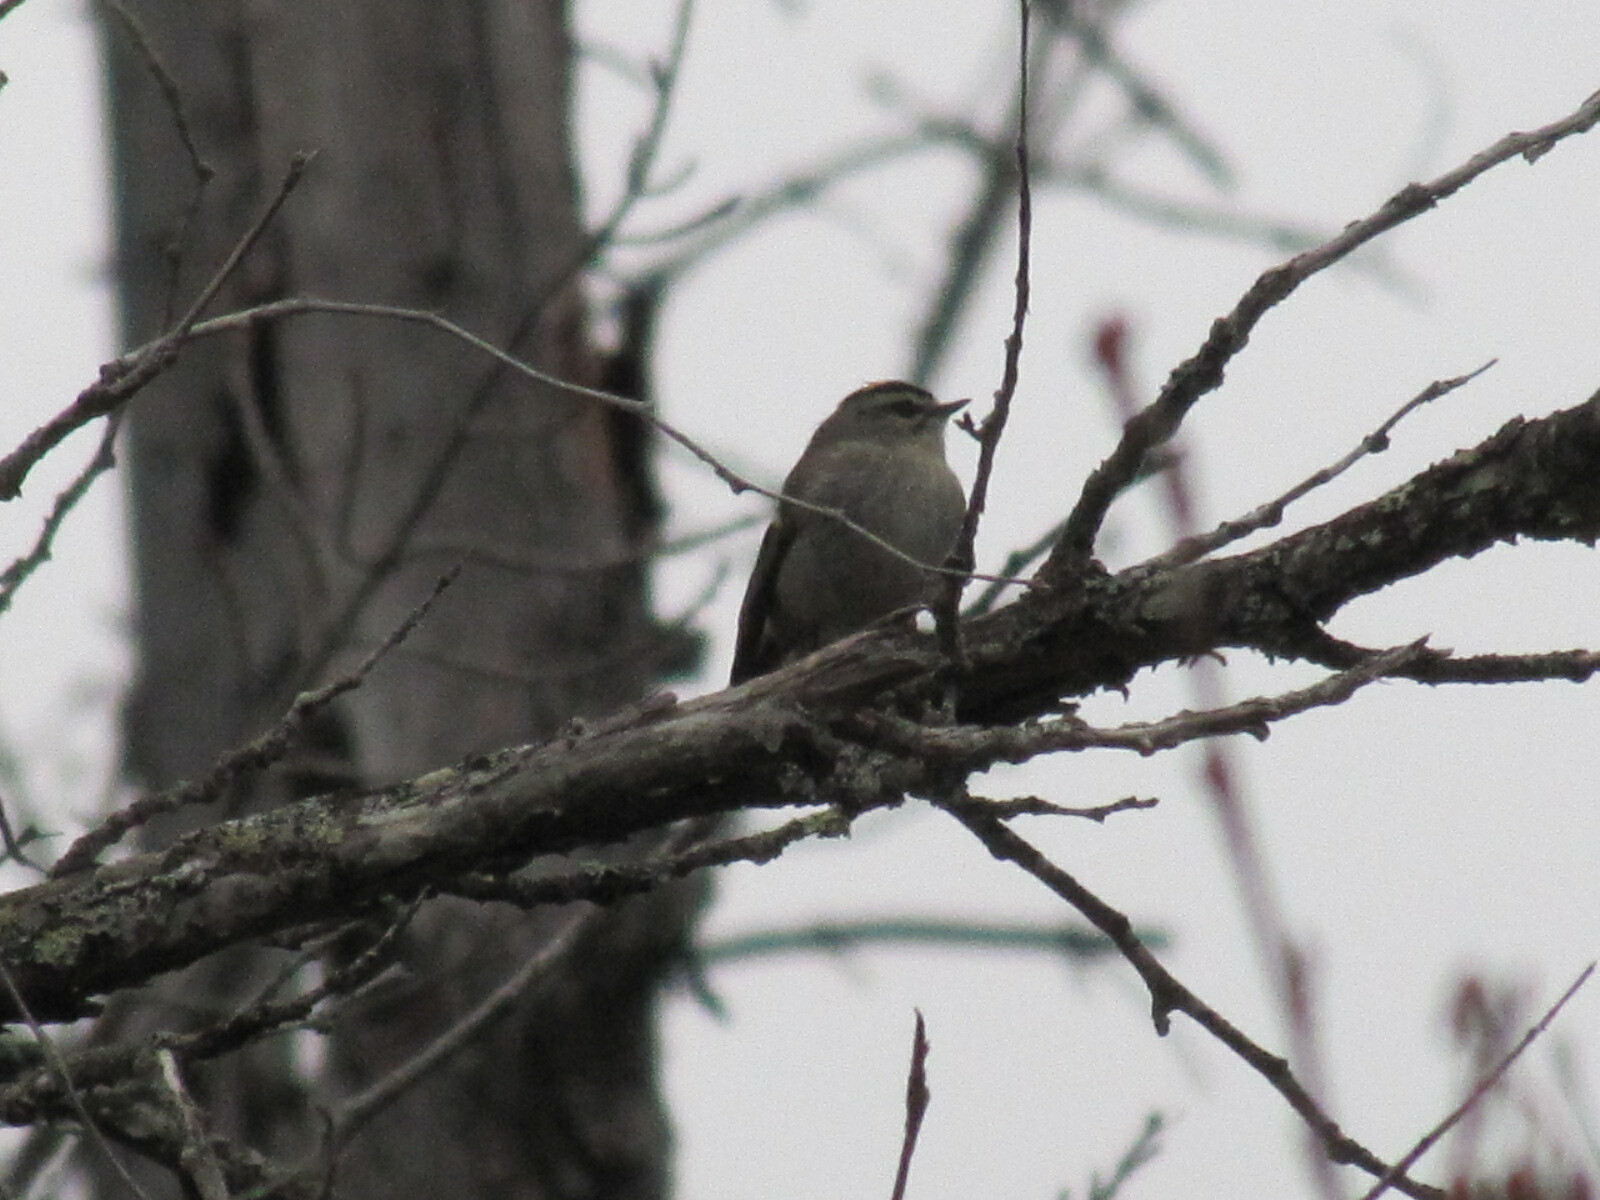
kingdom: Animalia
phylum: Chordata
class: Aves
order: Passeriformes
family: Regulidae
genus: Regulus
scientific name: Regulus satrapa
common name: Golden-crowned kinglet
